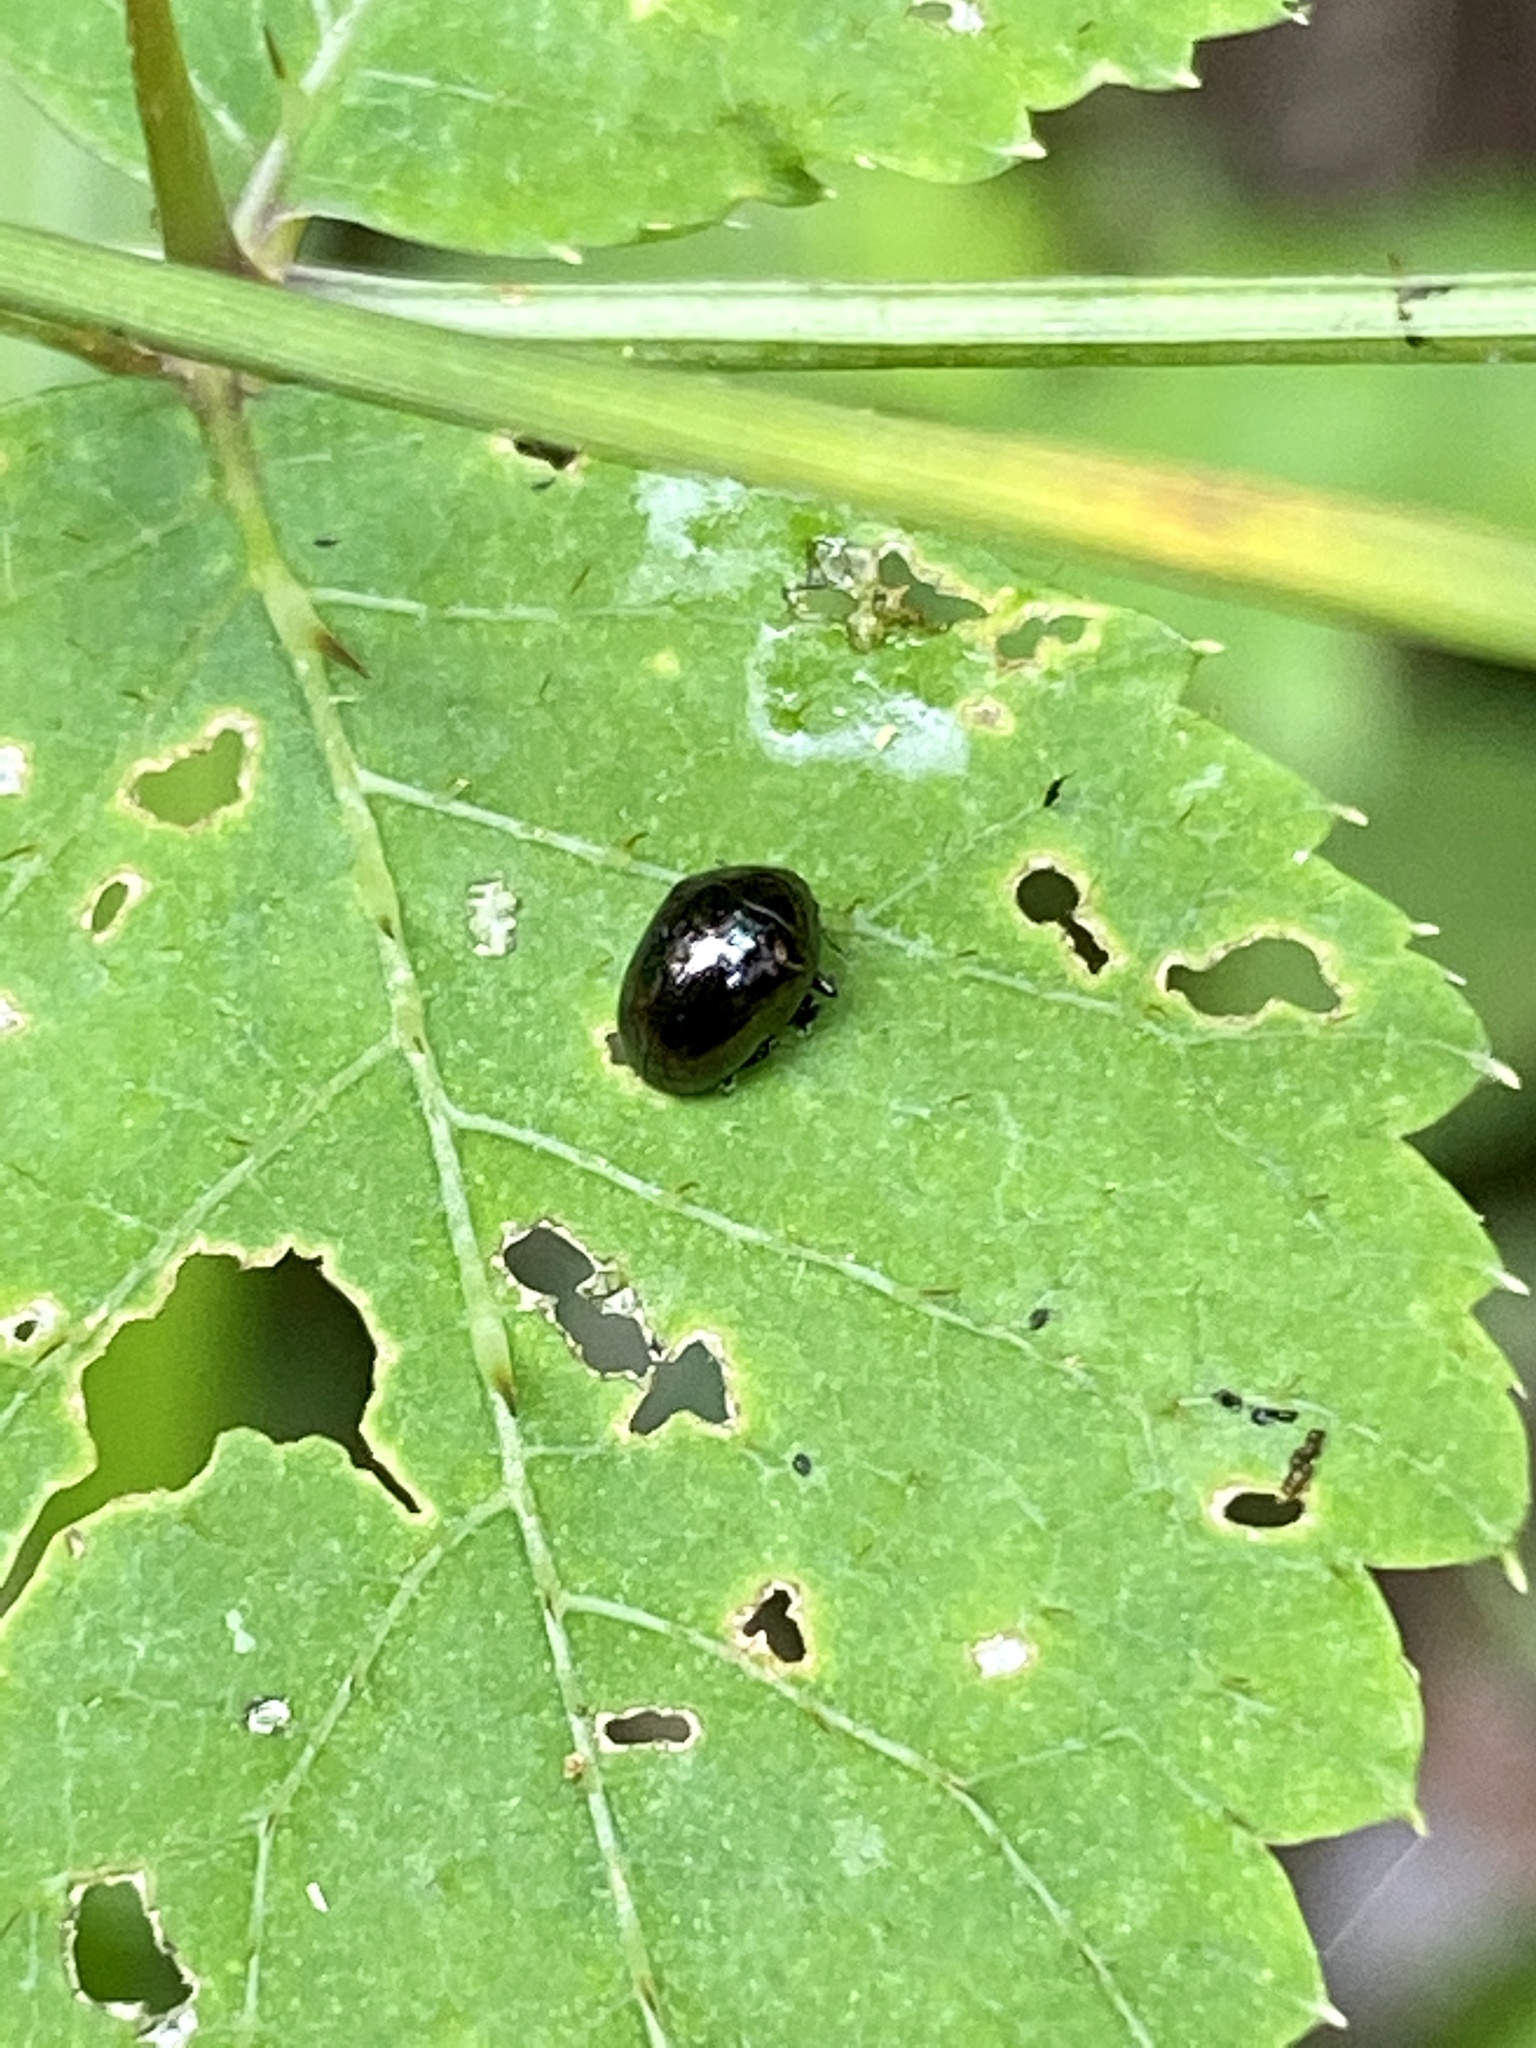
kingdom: Animalia
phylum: Arthropoda
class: Insecta
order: Coleoptera
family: Chrysomelidae
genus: Oomorphoides
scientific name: Oomorphoides cupreatus
